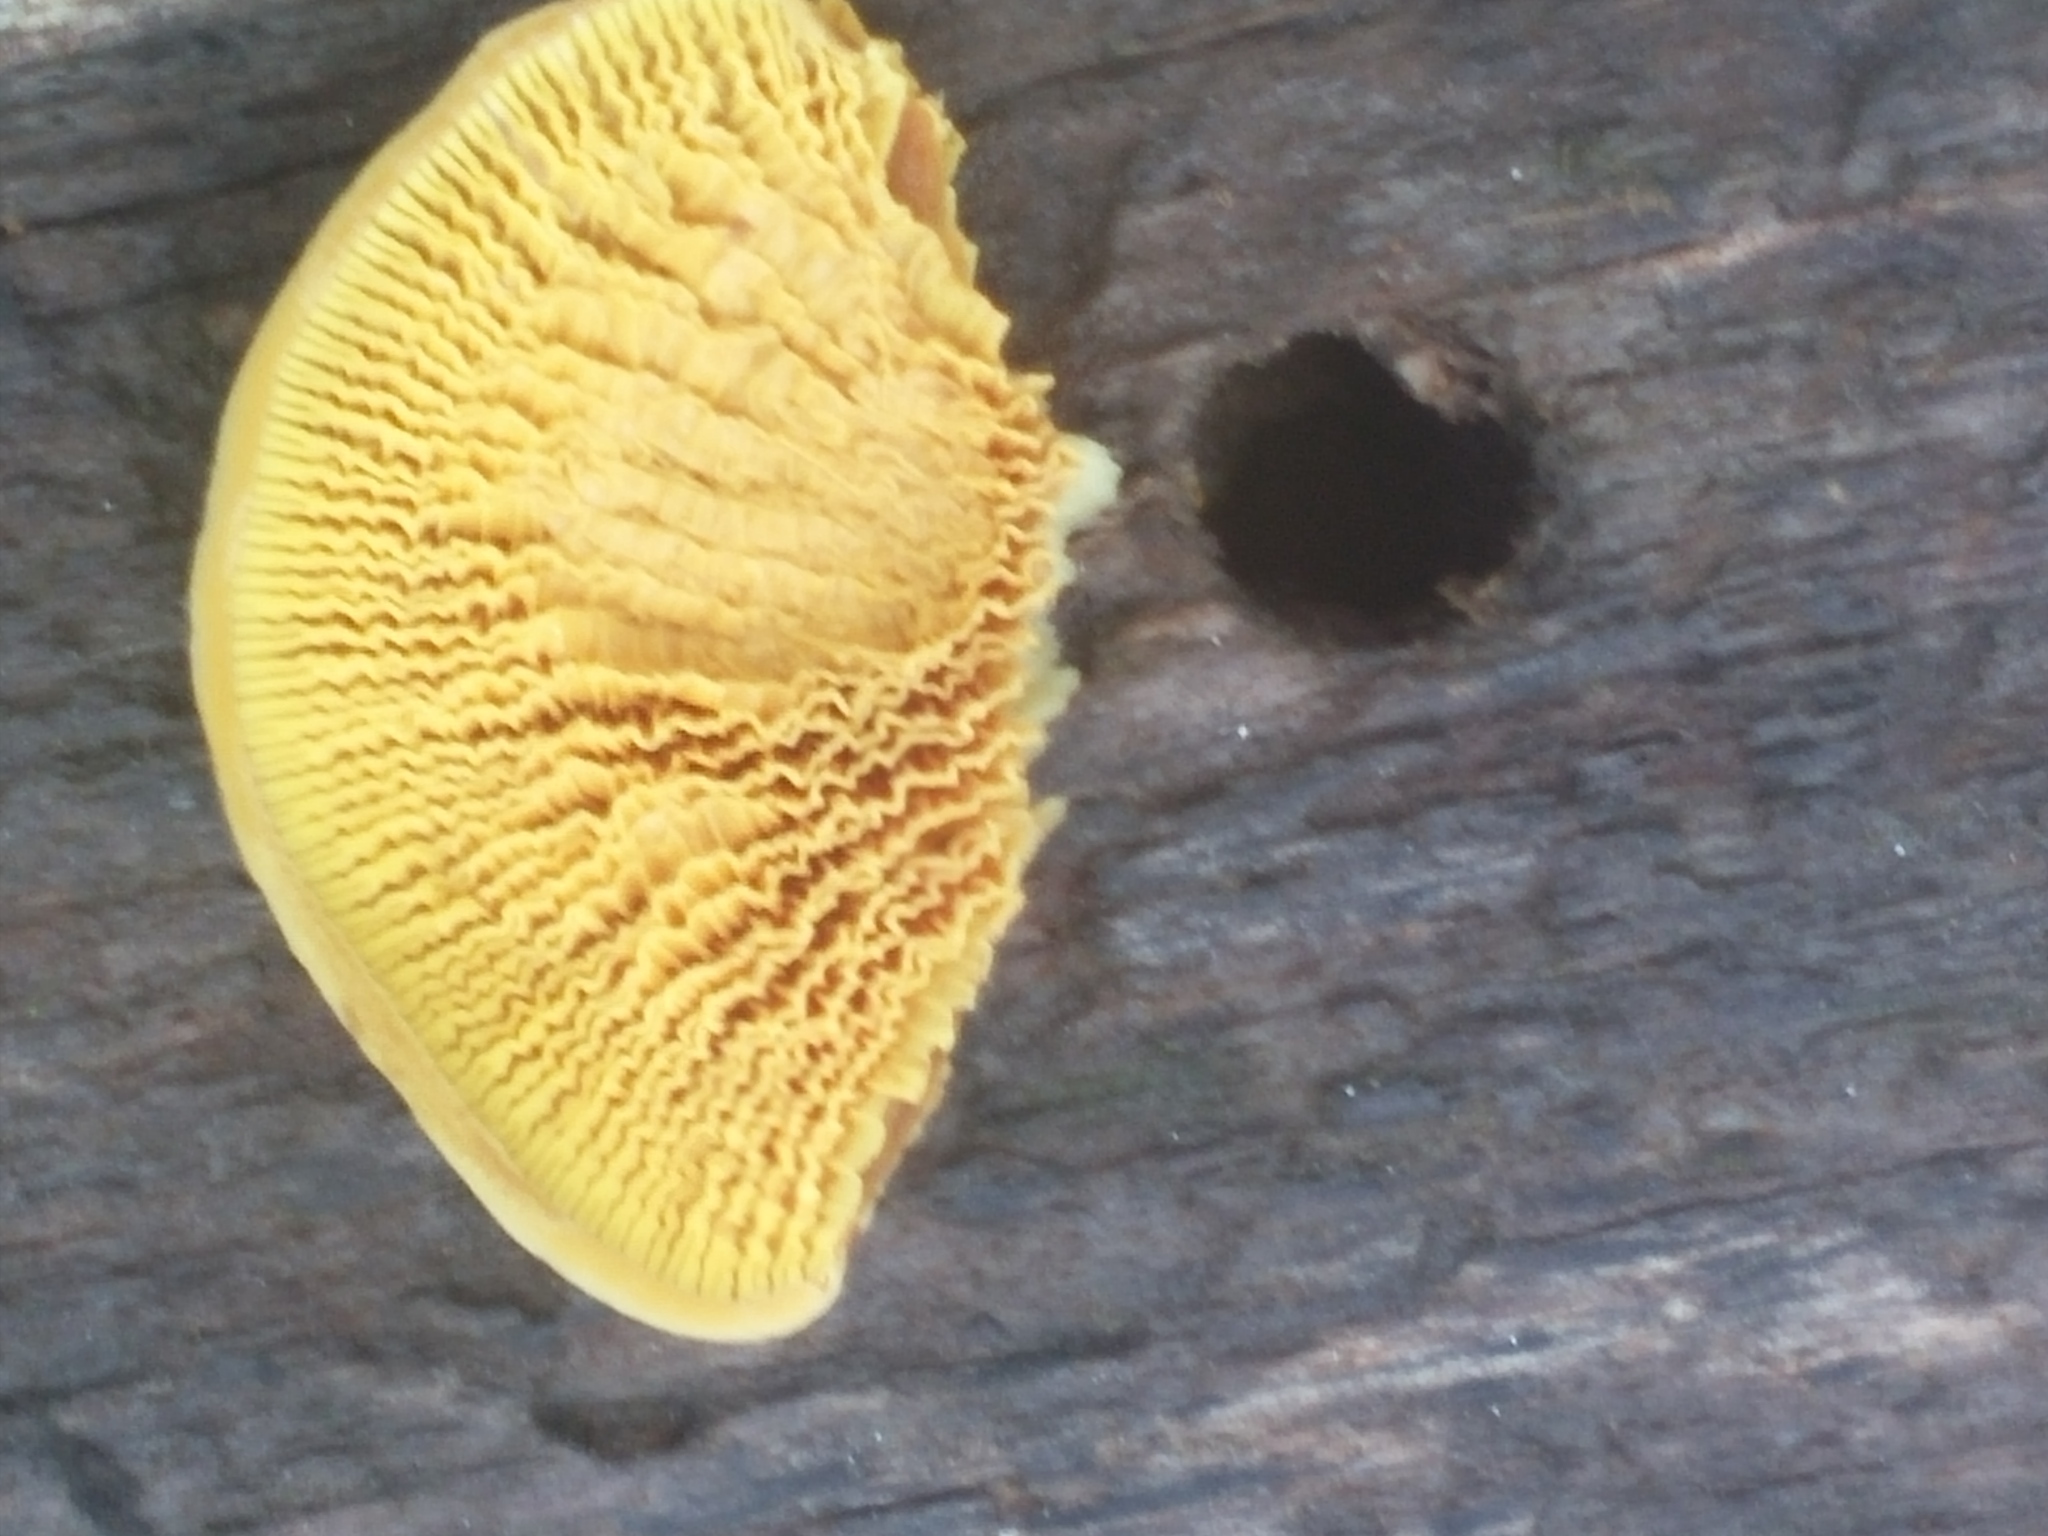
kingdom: Fungi
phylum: Basidiomycota
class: Agaricomycetes
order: Boletales
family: Paxillaceae
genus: Meiorganum
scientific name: Meiorganum curtisii
